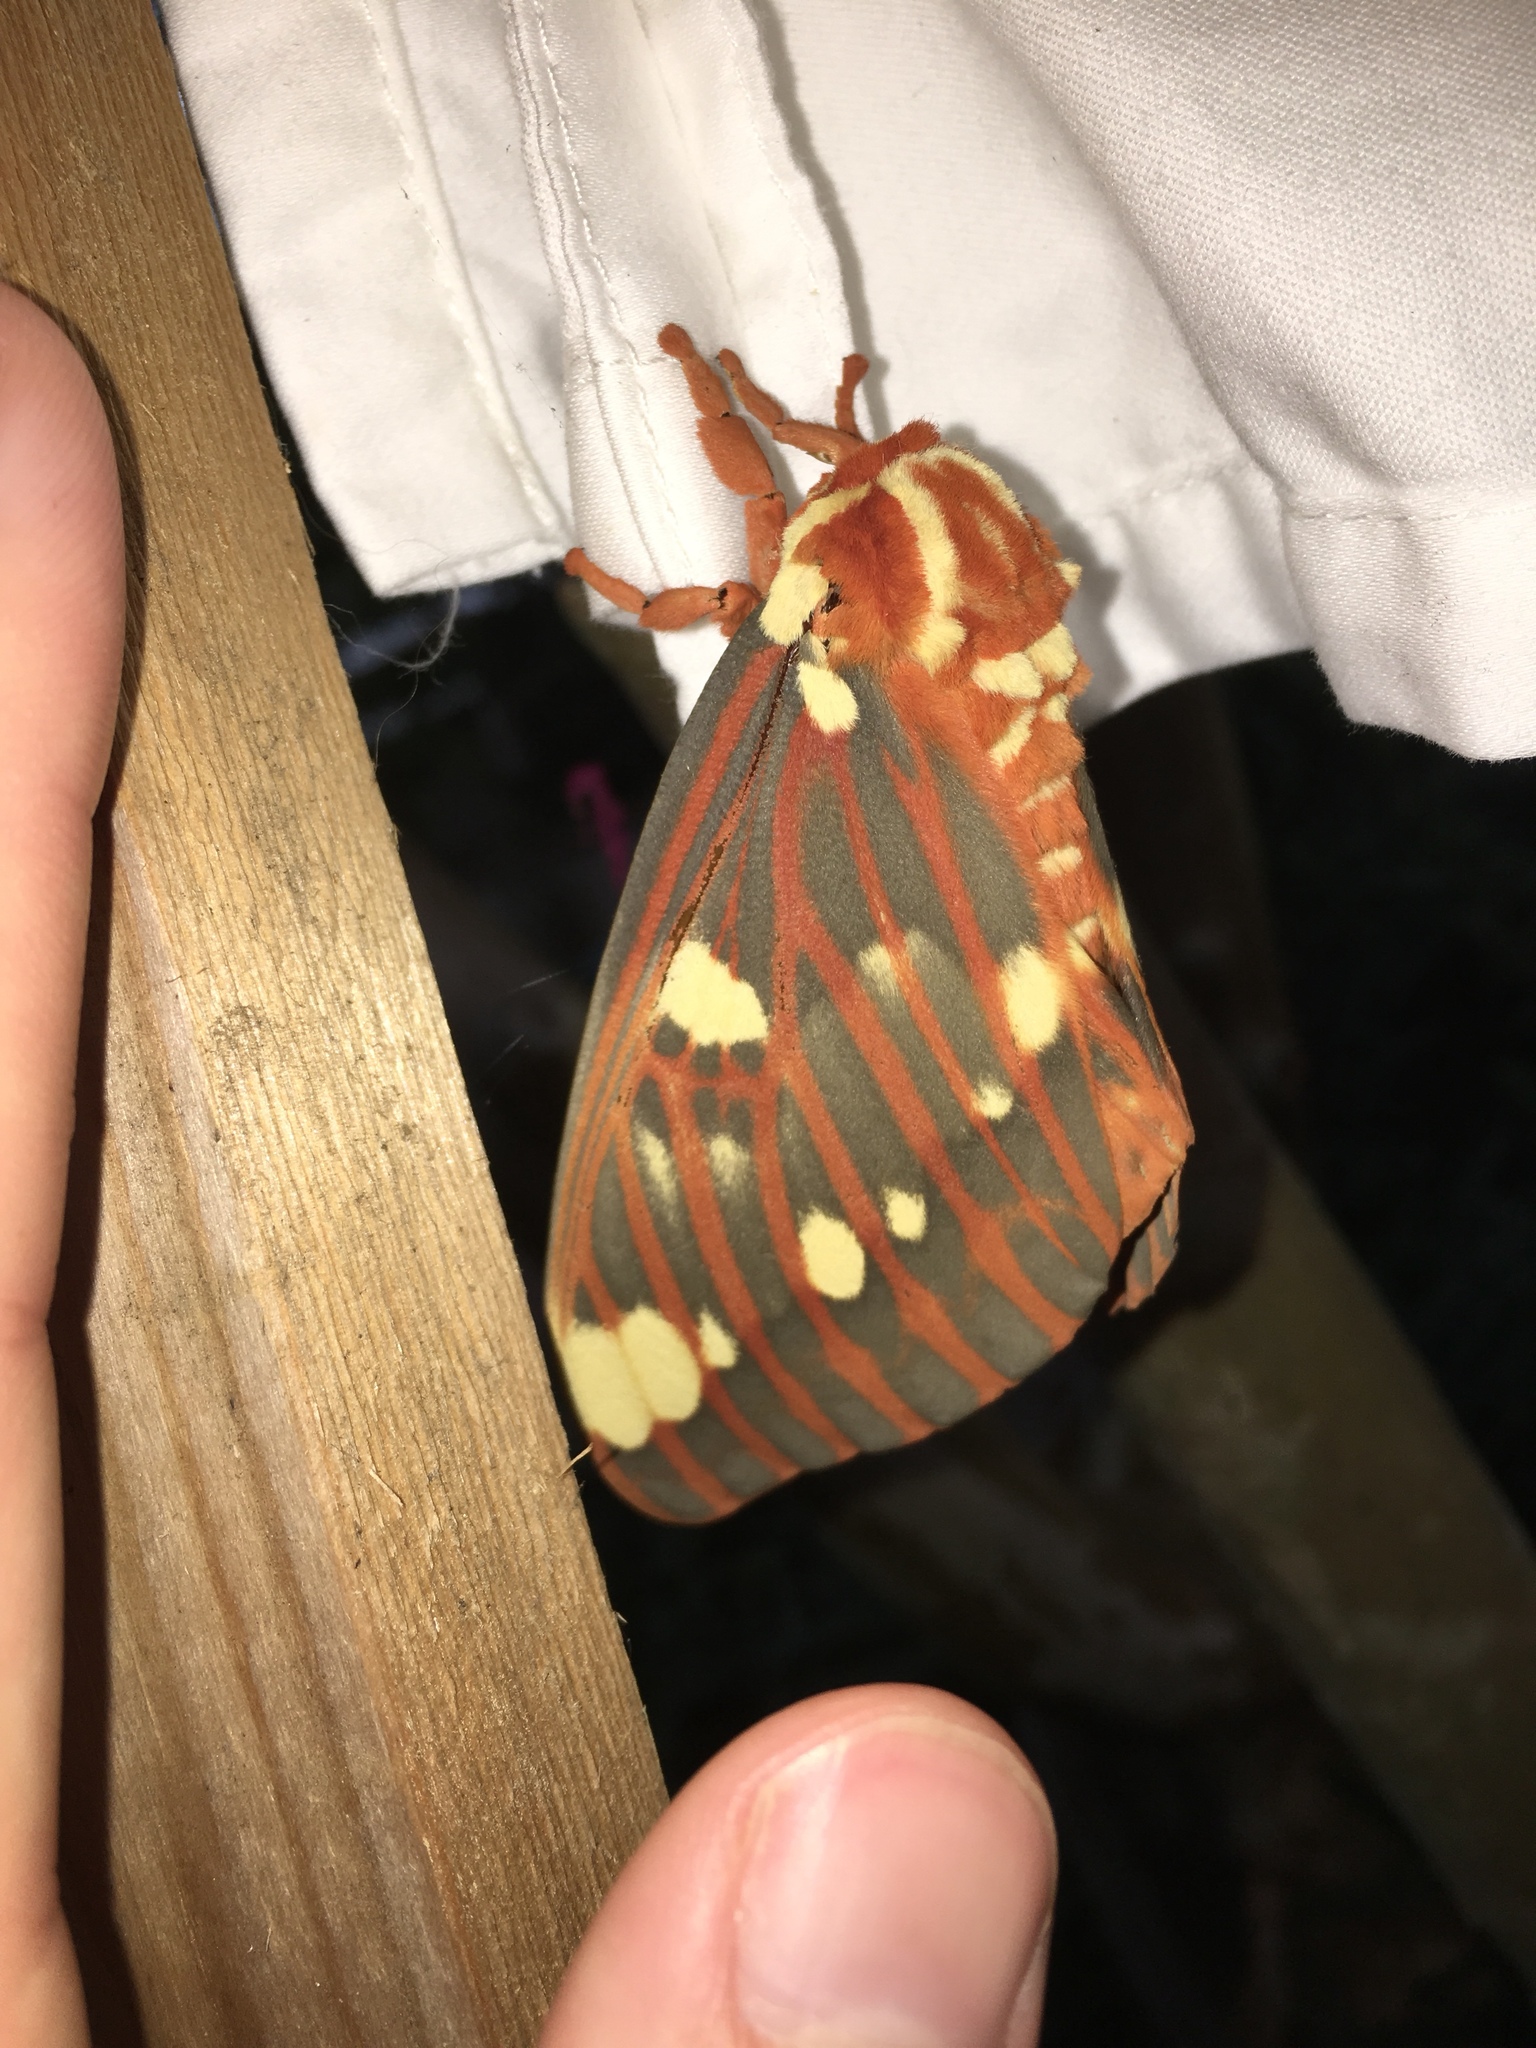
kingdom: Animalia
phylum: Arthropoda
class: Insecta
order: Lepidoptera
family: Saturniidae
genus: Citheronia
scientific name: Citheronia regalis
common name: Hickory horned devil
